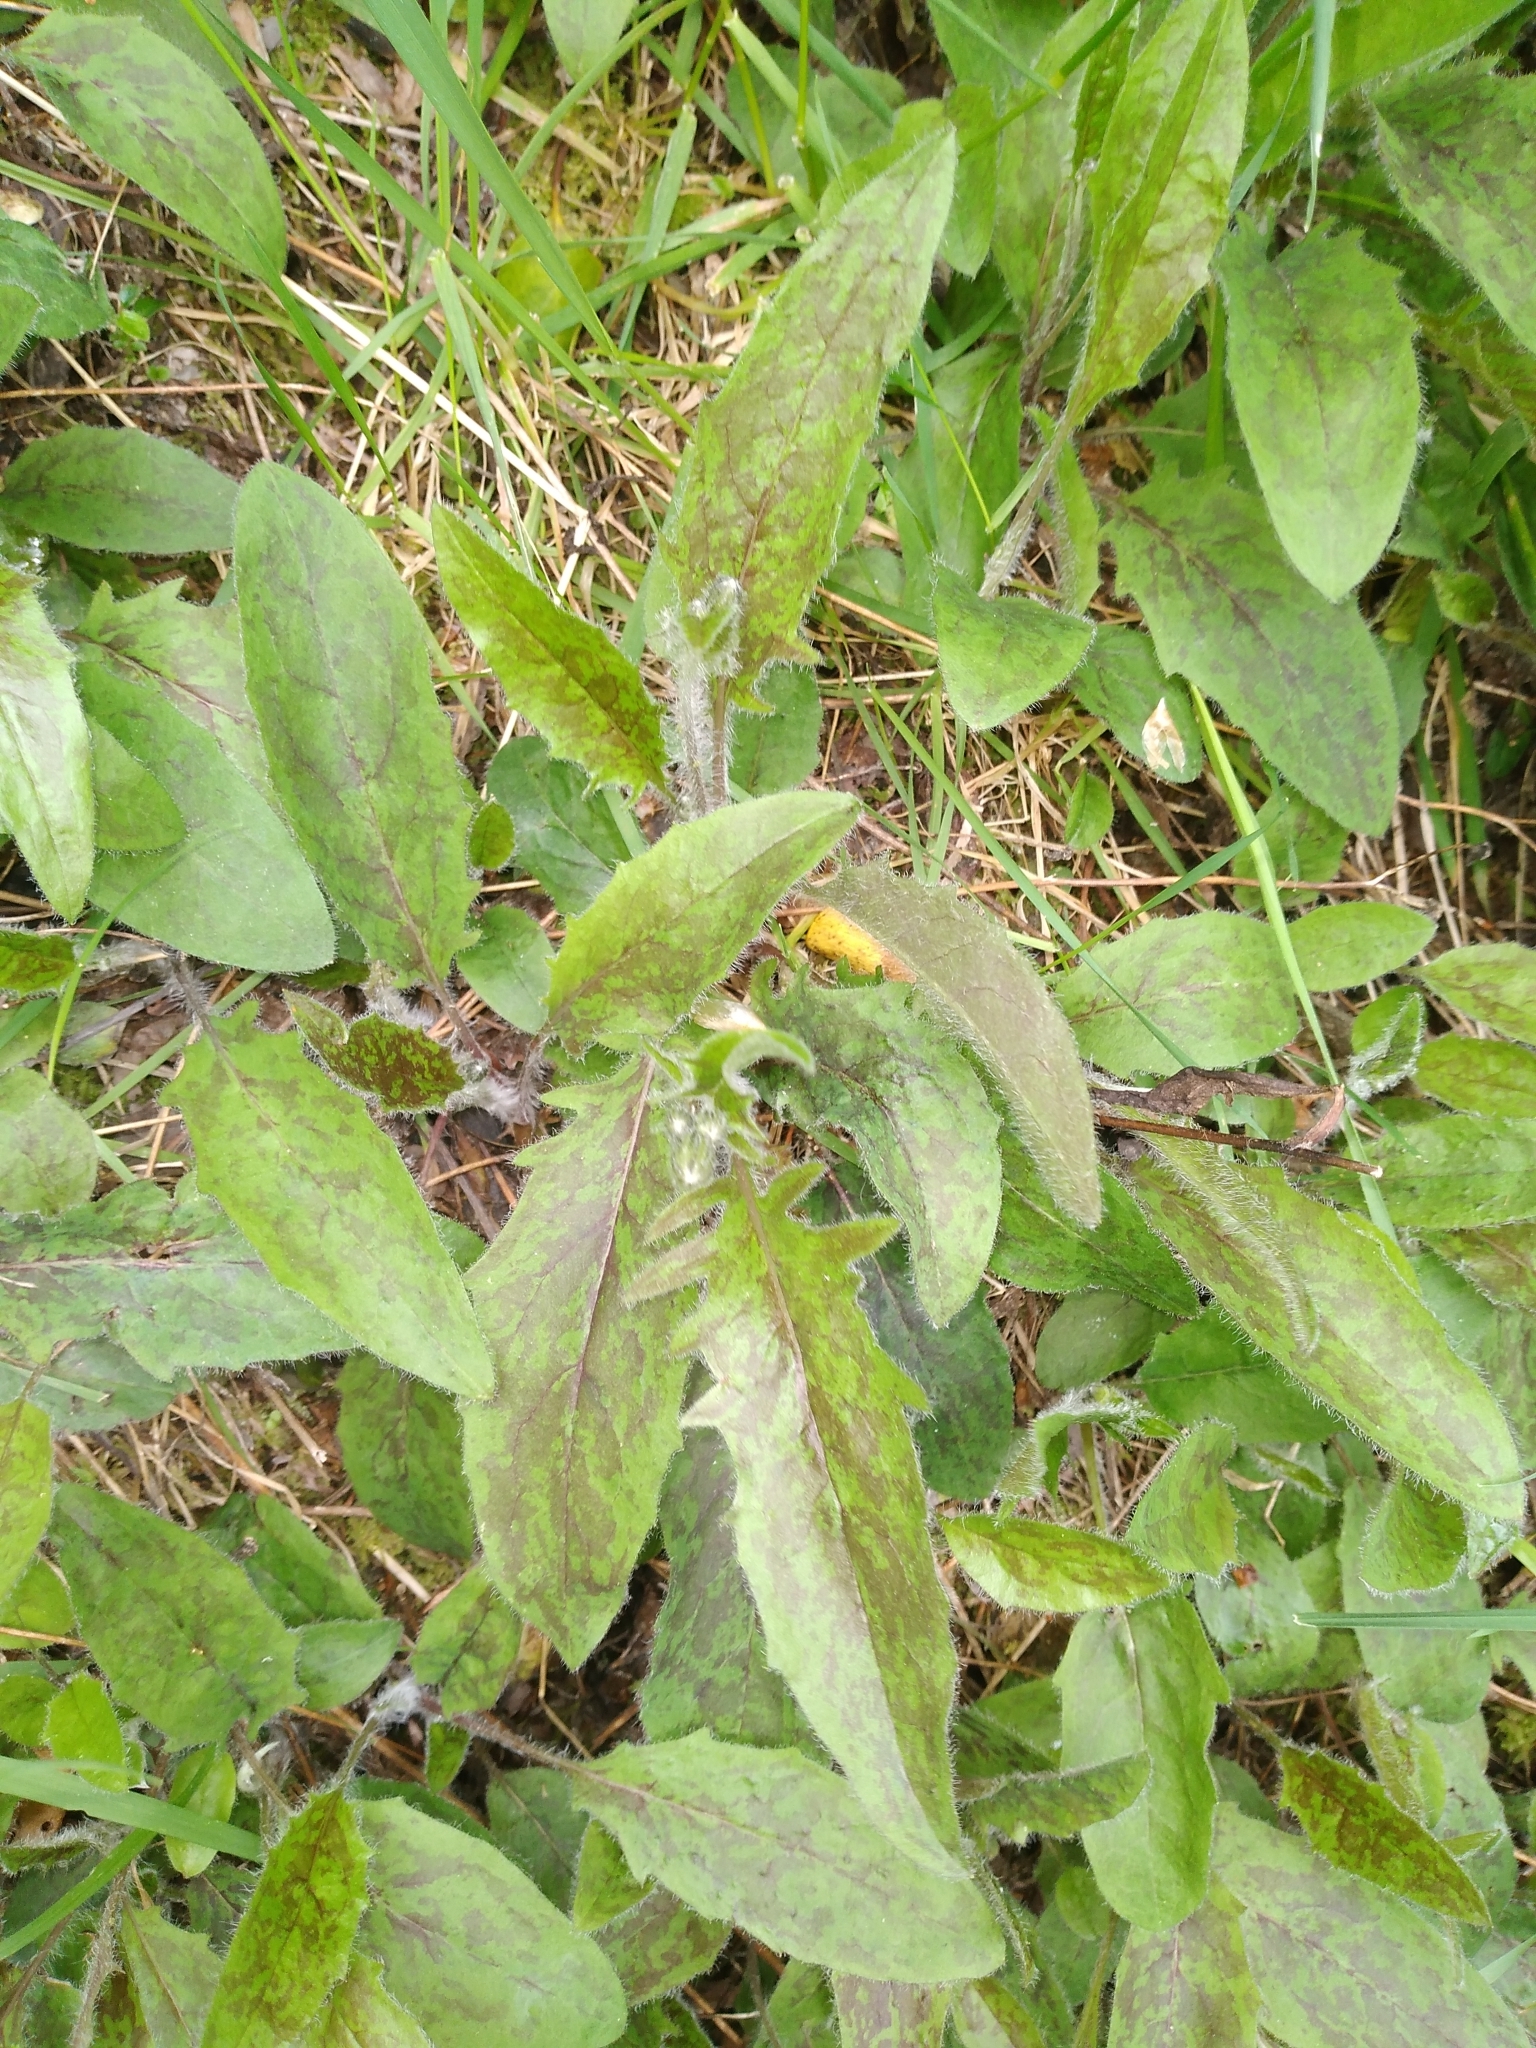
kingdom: Plantae
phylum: Tracheophyta
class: Magnoliopsida
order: Asterales
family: Asteraceae
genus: Hieracium
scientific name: Hieracium maculatum
